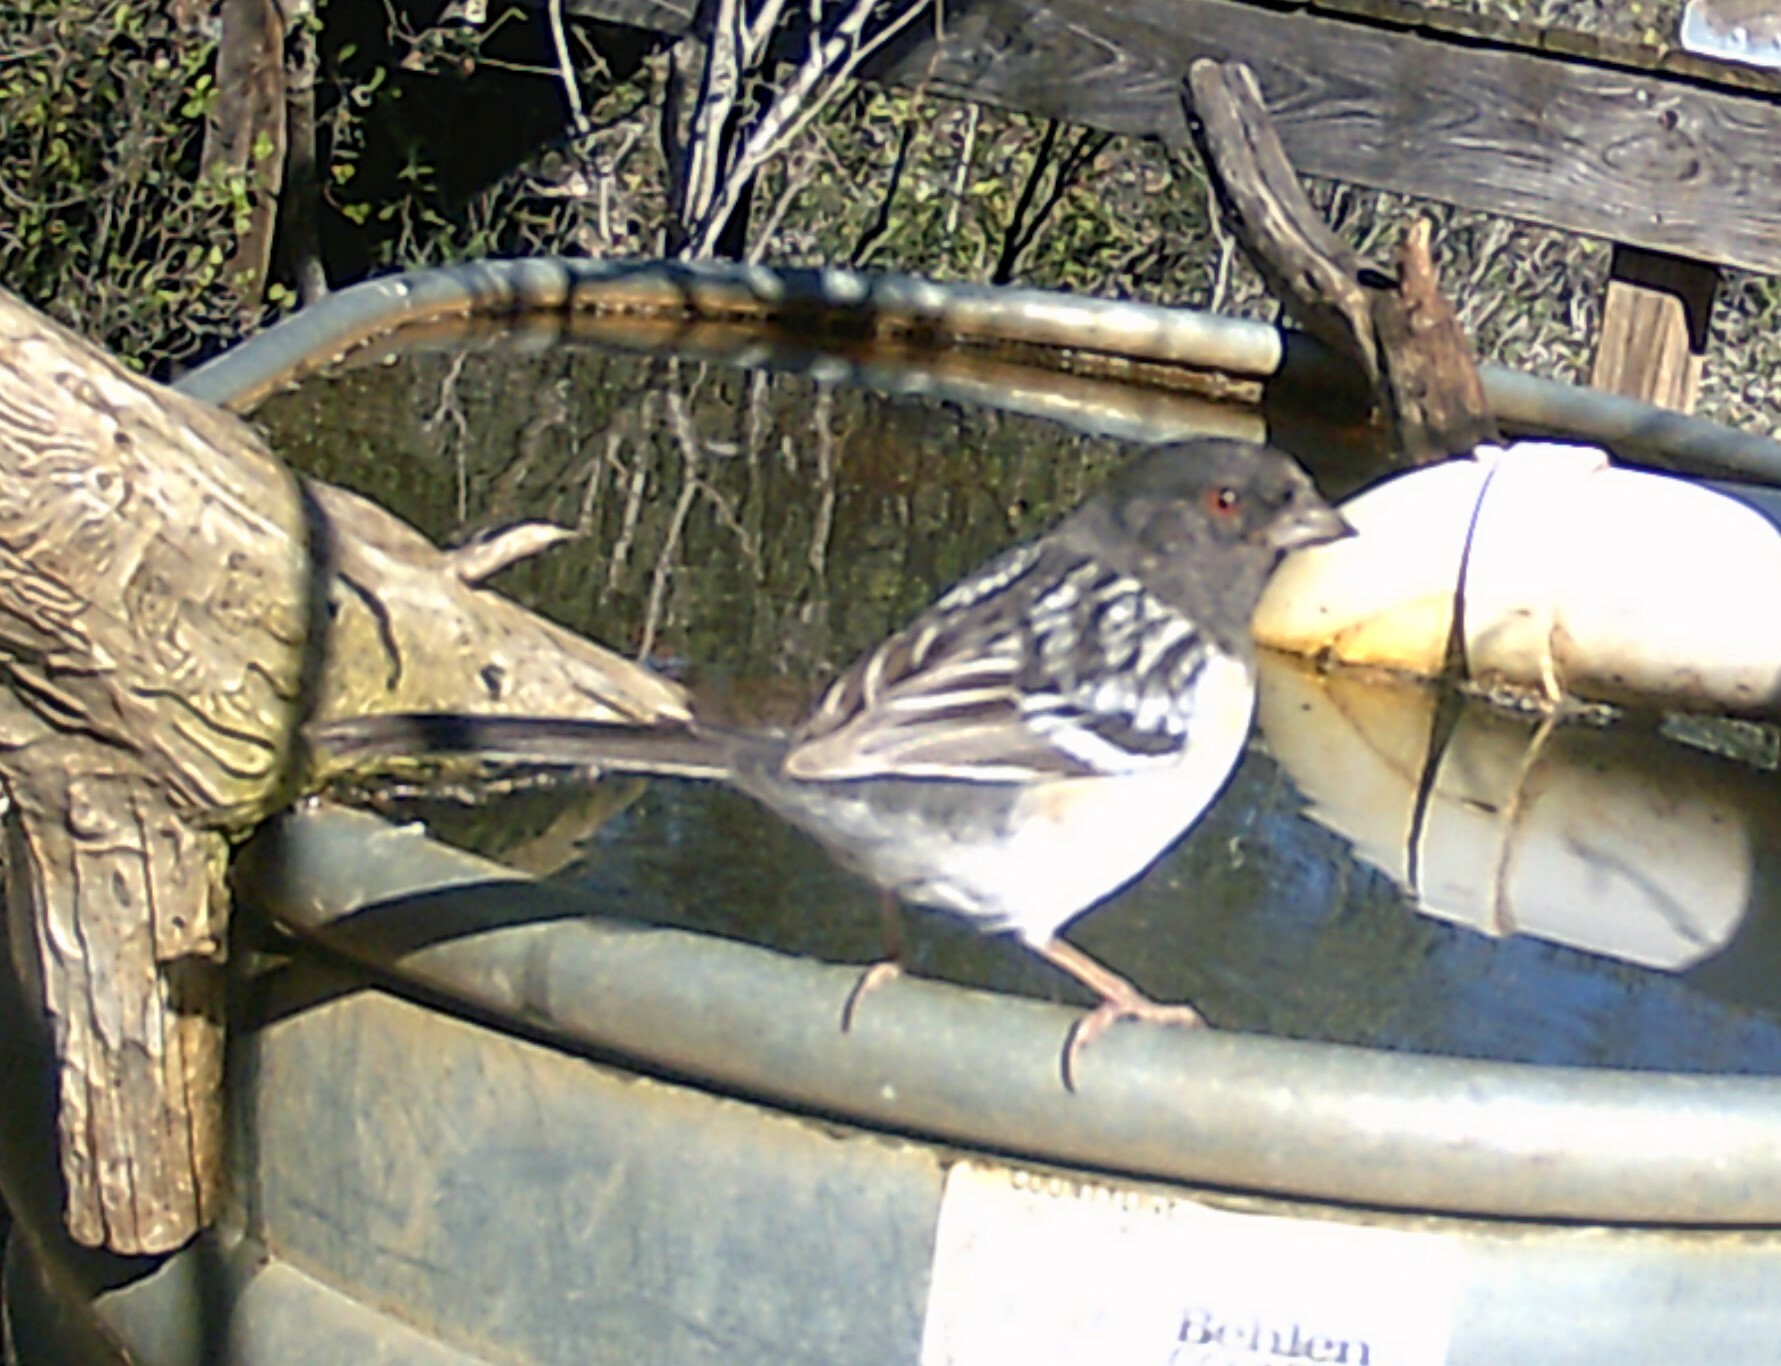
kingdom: Animalia
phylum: Chordata
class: Aves
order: Passeriformes
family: Passerellidae
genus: Pipilo
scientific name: Pipilo maculatus
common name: Spotted towhee
